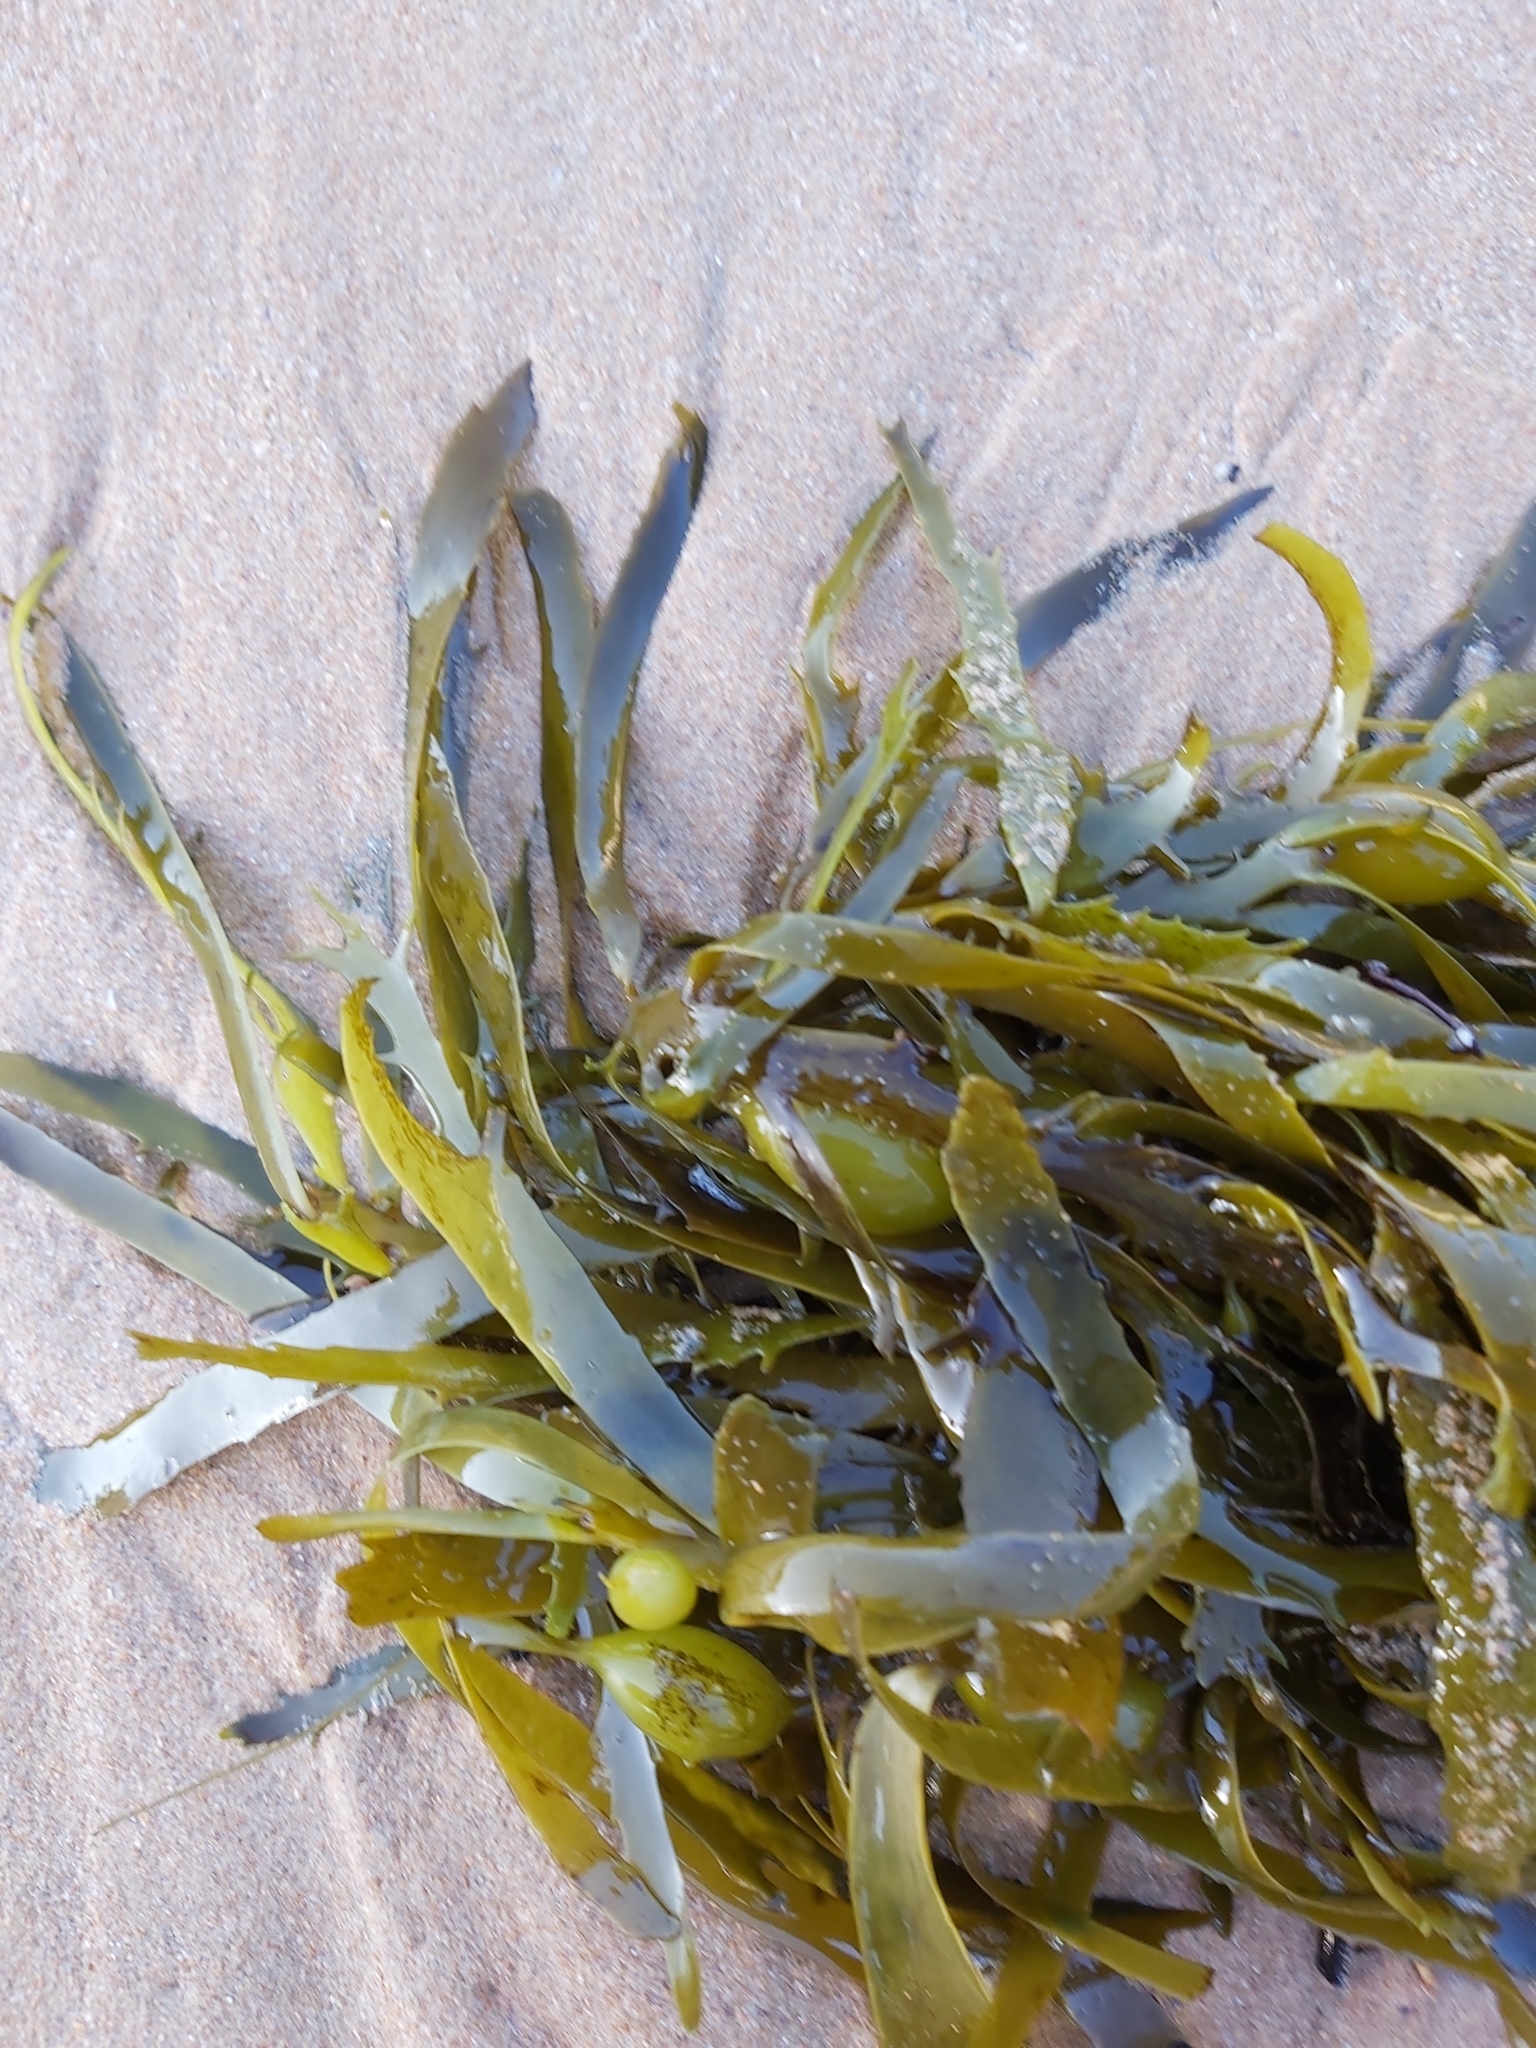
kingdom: Chromista
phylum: Ochrophyta
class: Phaeophyceae
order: Fucales
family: Seirococcaceae
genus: Phyllospora
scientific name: Phyllospora
